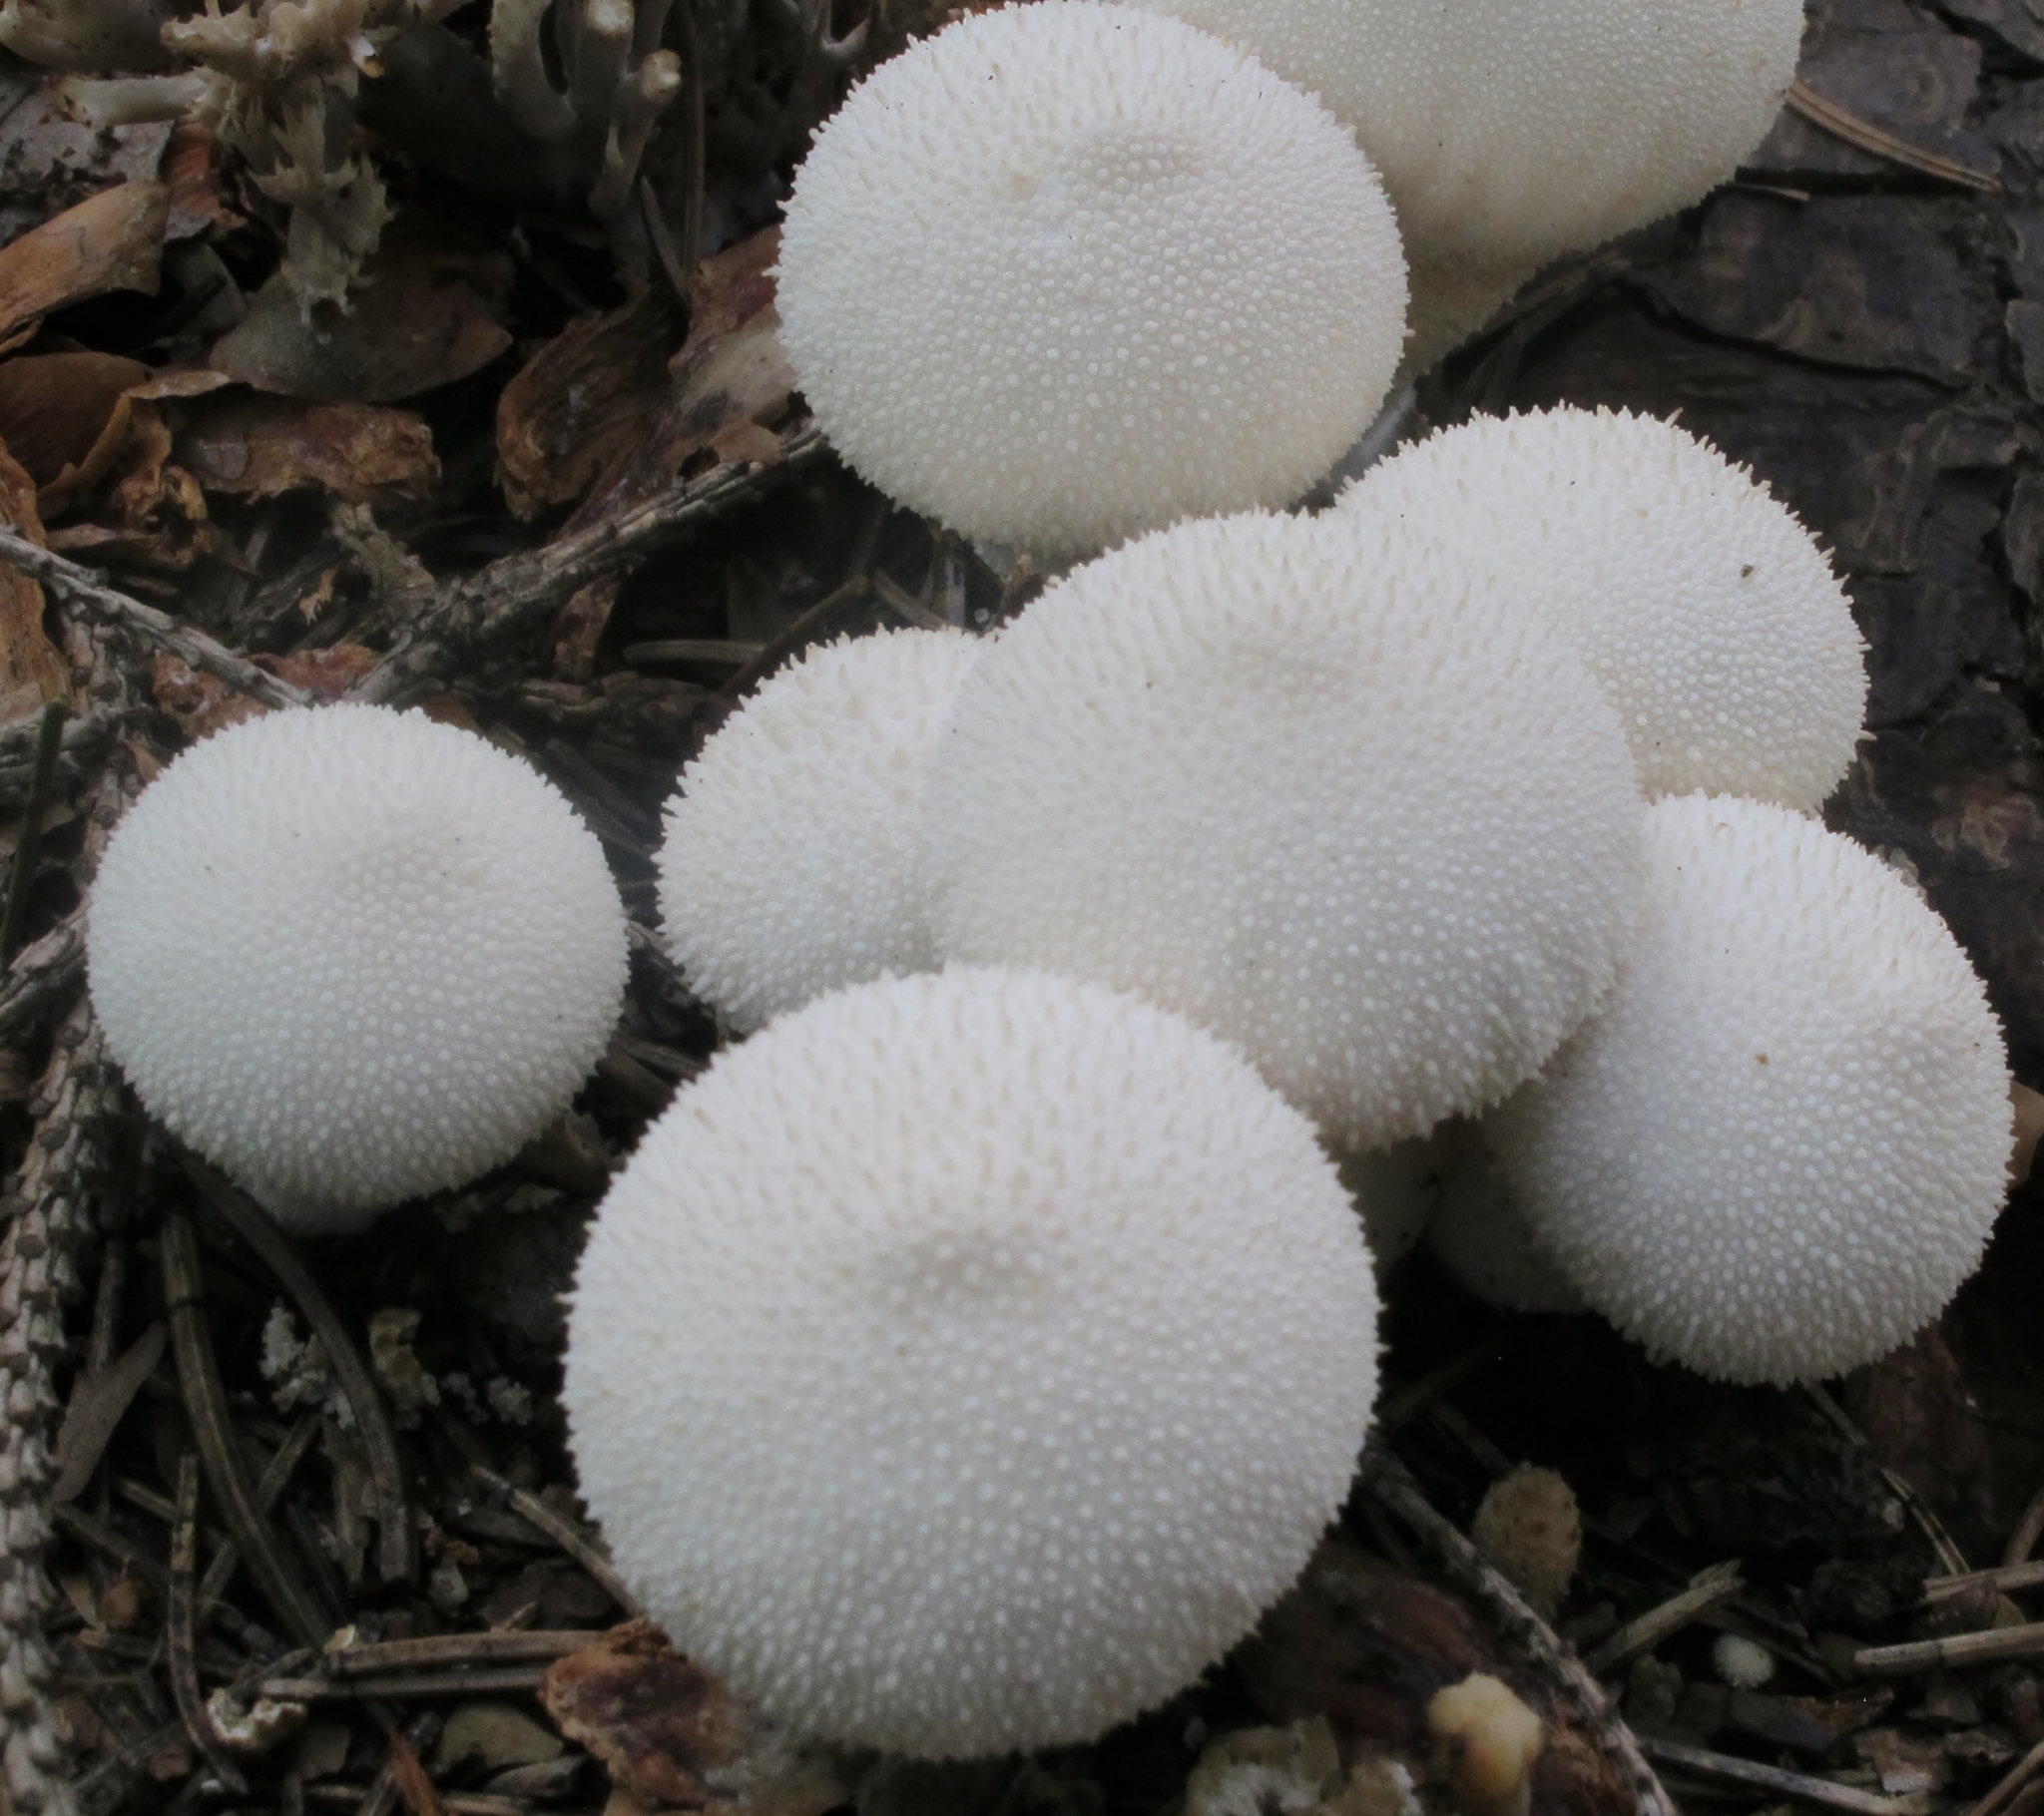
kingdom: Fungi
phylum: Basidiomycota
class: Agaricomycetes
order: Agaricales
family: Lycoperdaceae
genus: Lycoperdon
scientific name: Lycoperdon perlatum
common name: Common puffball
